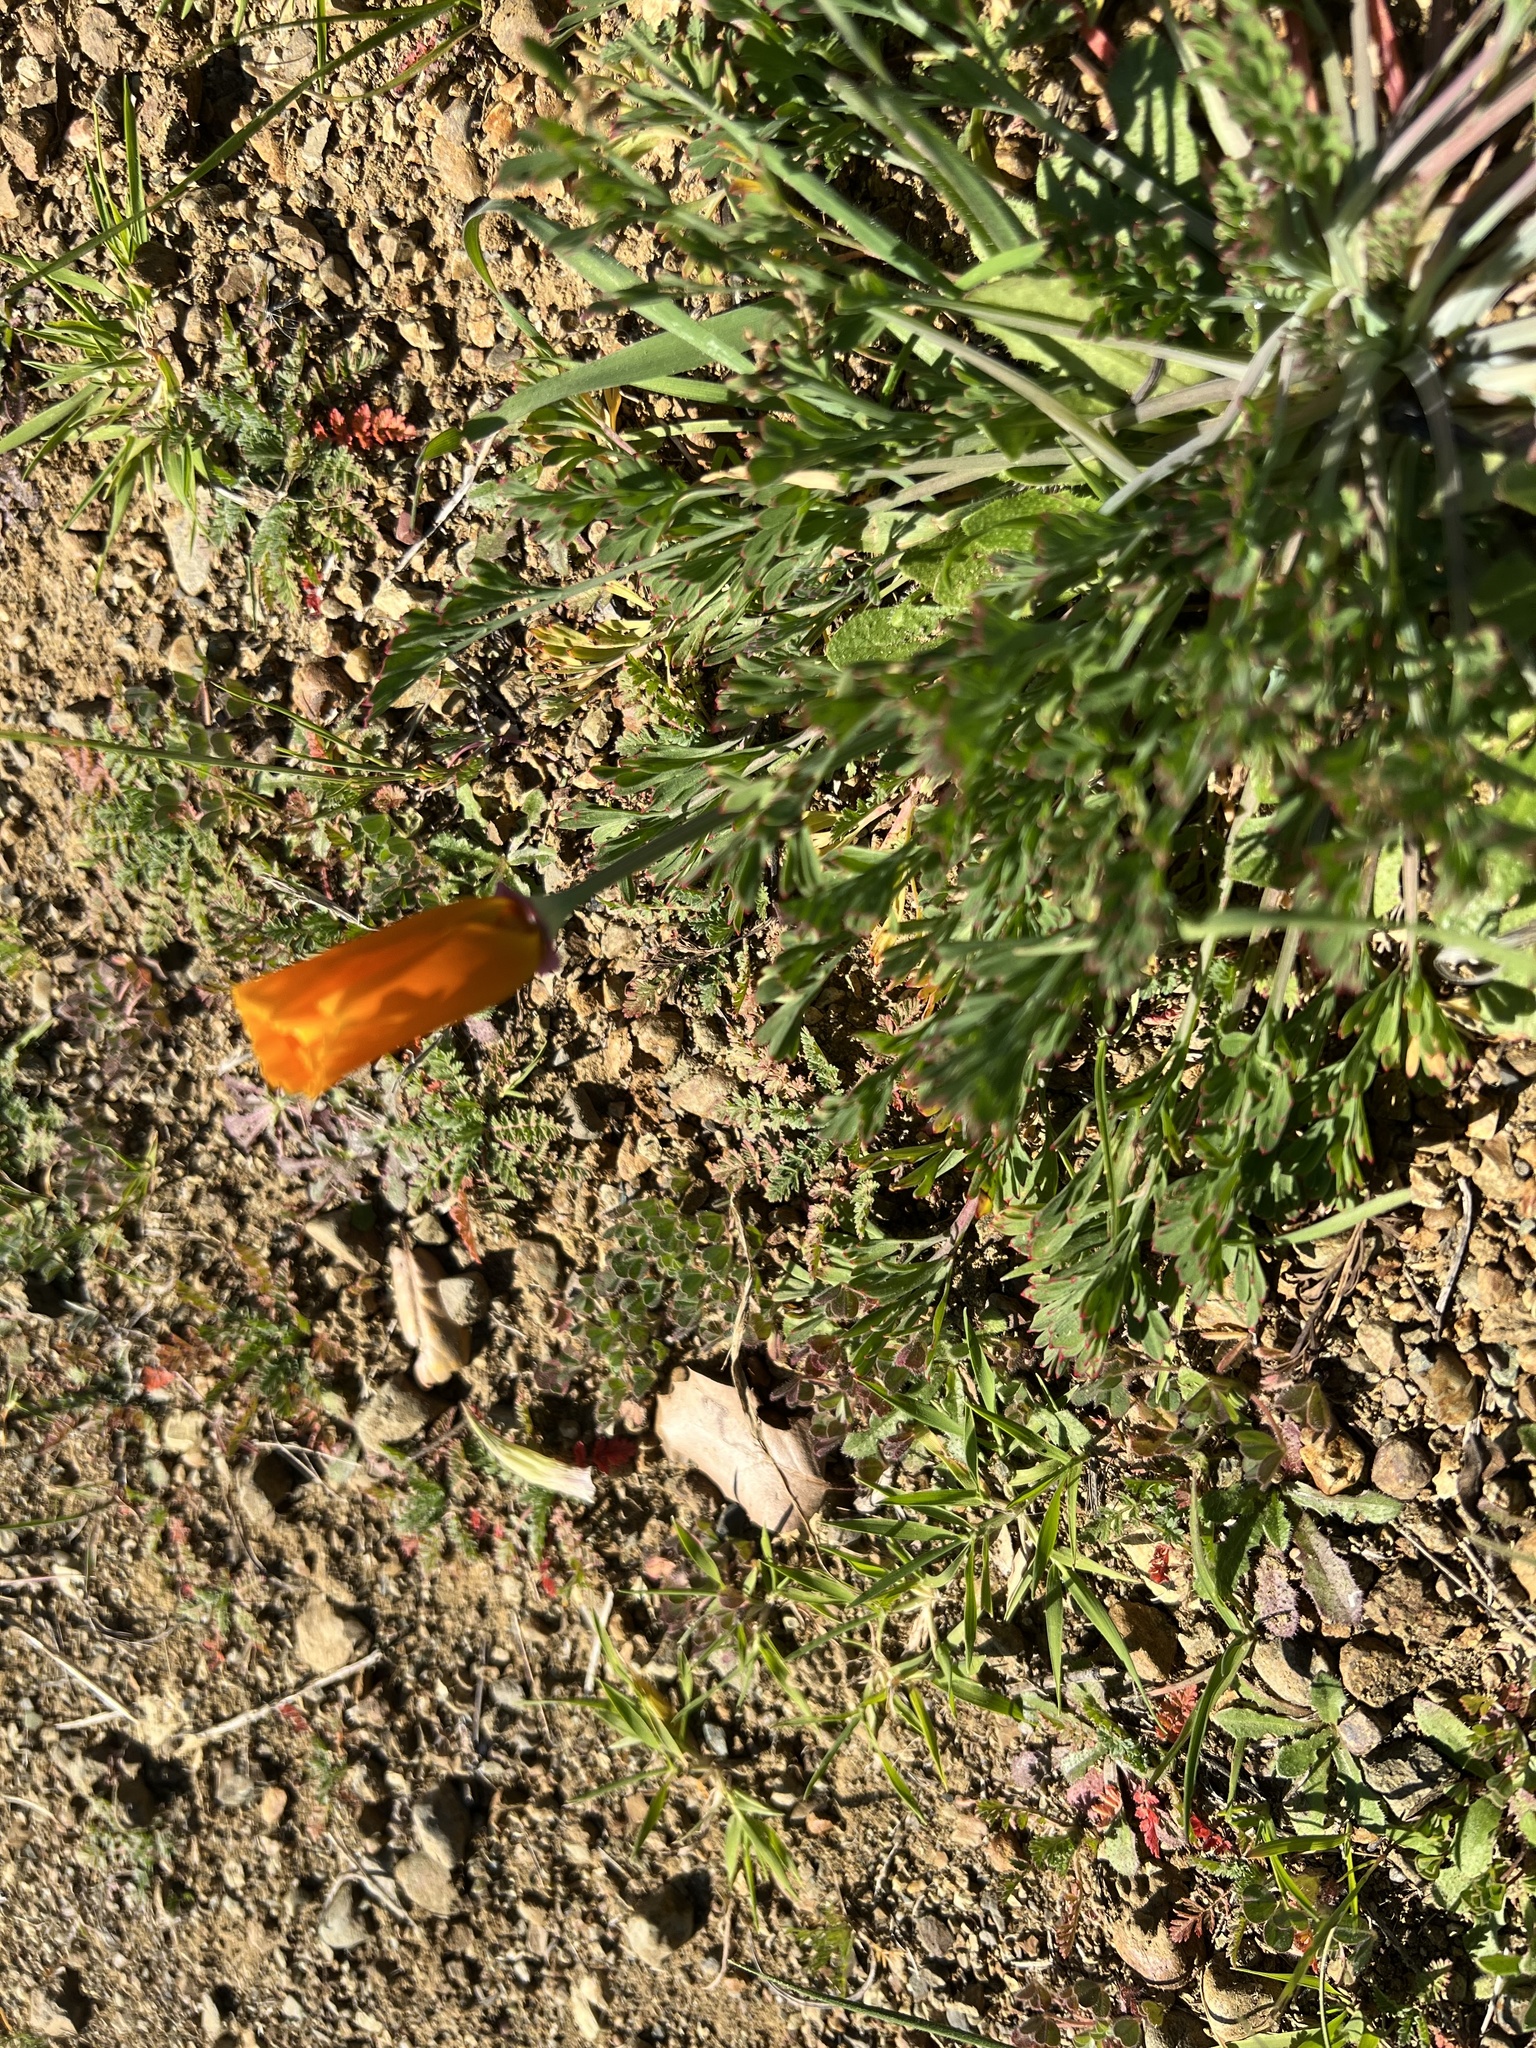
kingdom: Plantae
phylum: Tracheophyta
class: Magnoliopsida
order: Ranunculales
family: Papaveraceae
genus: Eschscholzia
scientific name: Eschscholzia californica
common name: California poppy
